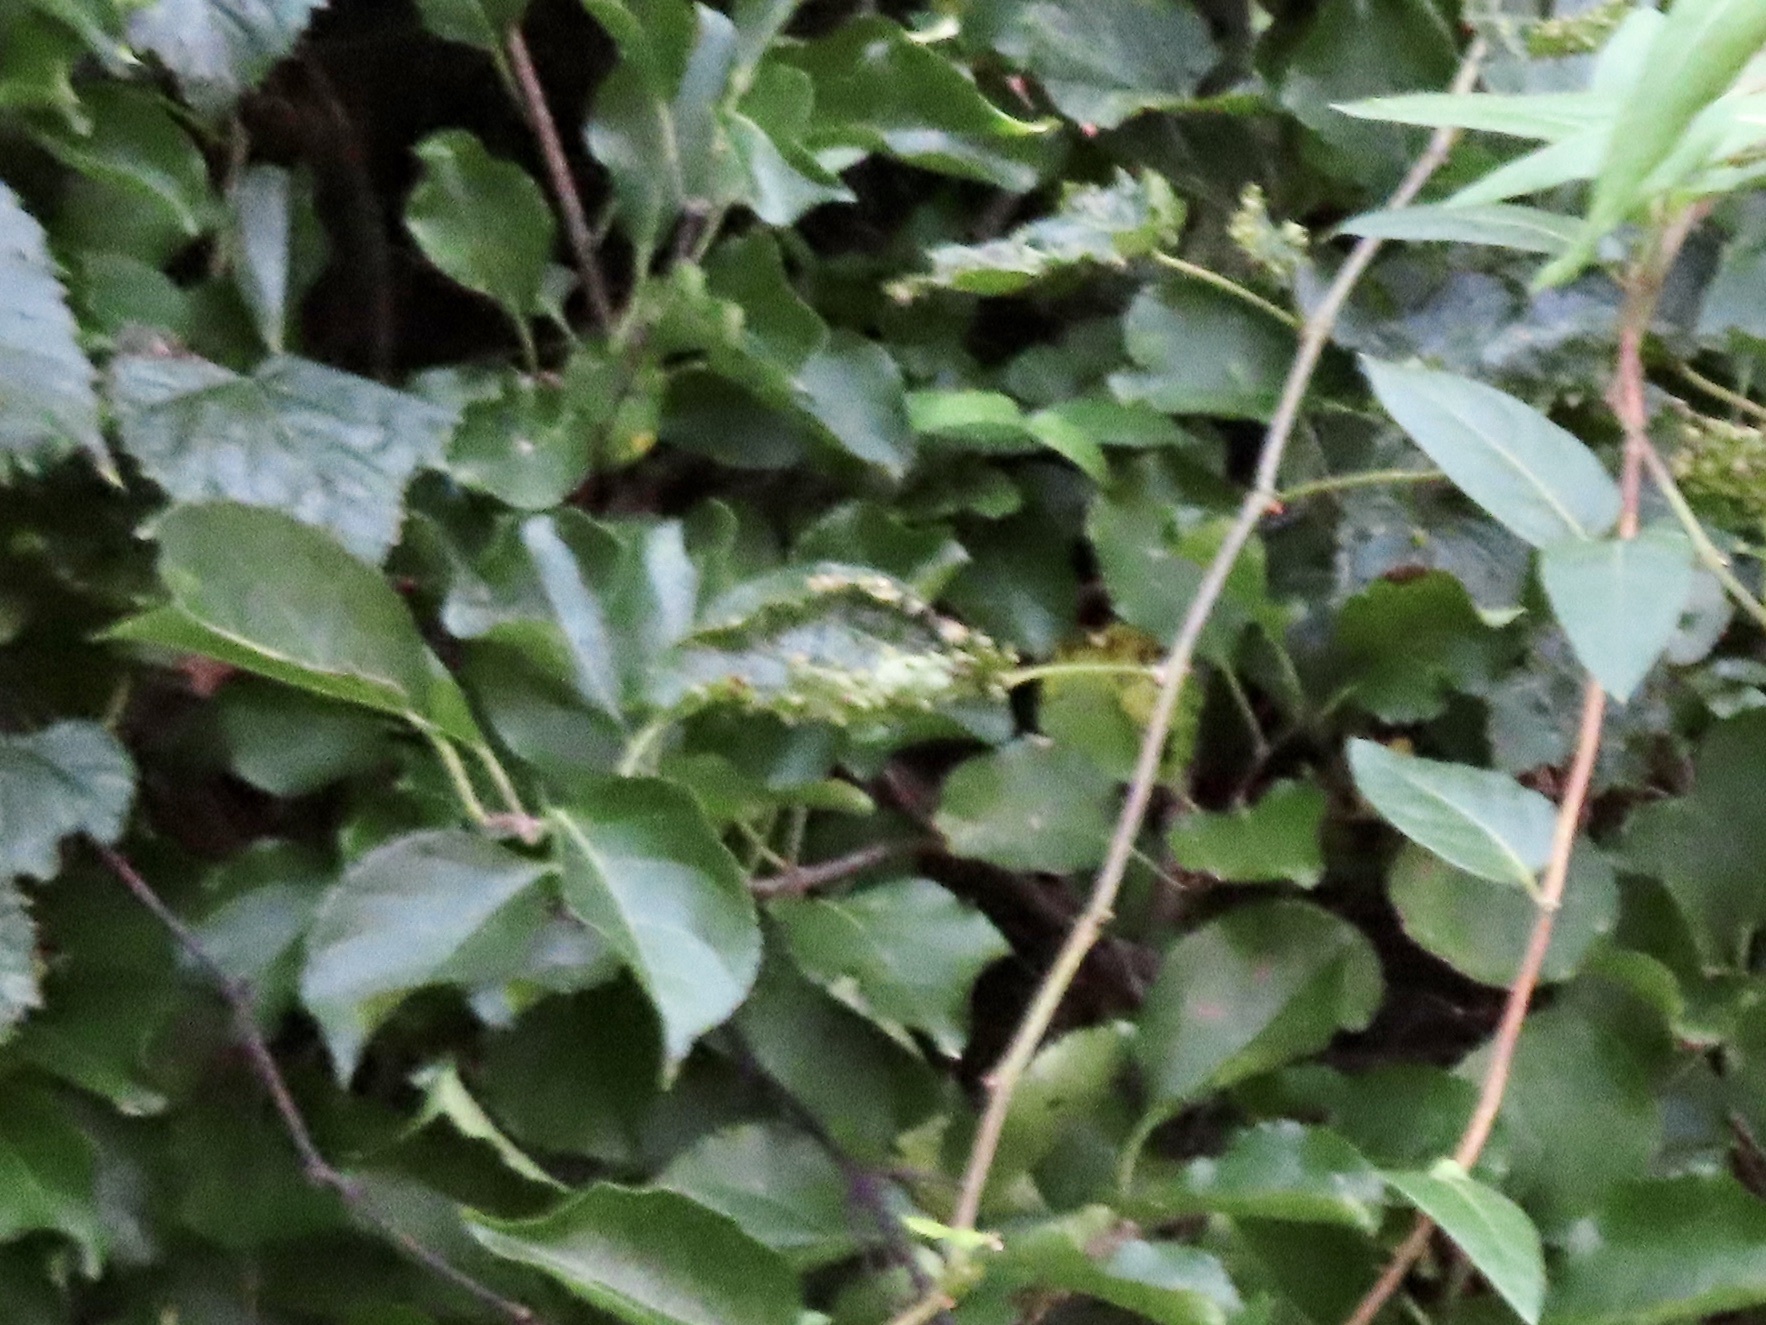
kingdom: Animalia
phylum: Arthropoda
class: Insecta
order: Hemiptera
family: Phylloxeridae
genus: Daktulosphaira
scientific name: Daktulosphaira vitifoliae
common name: Grape phylloxera
